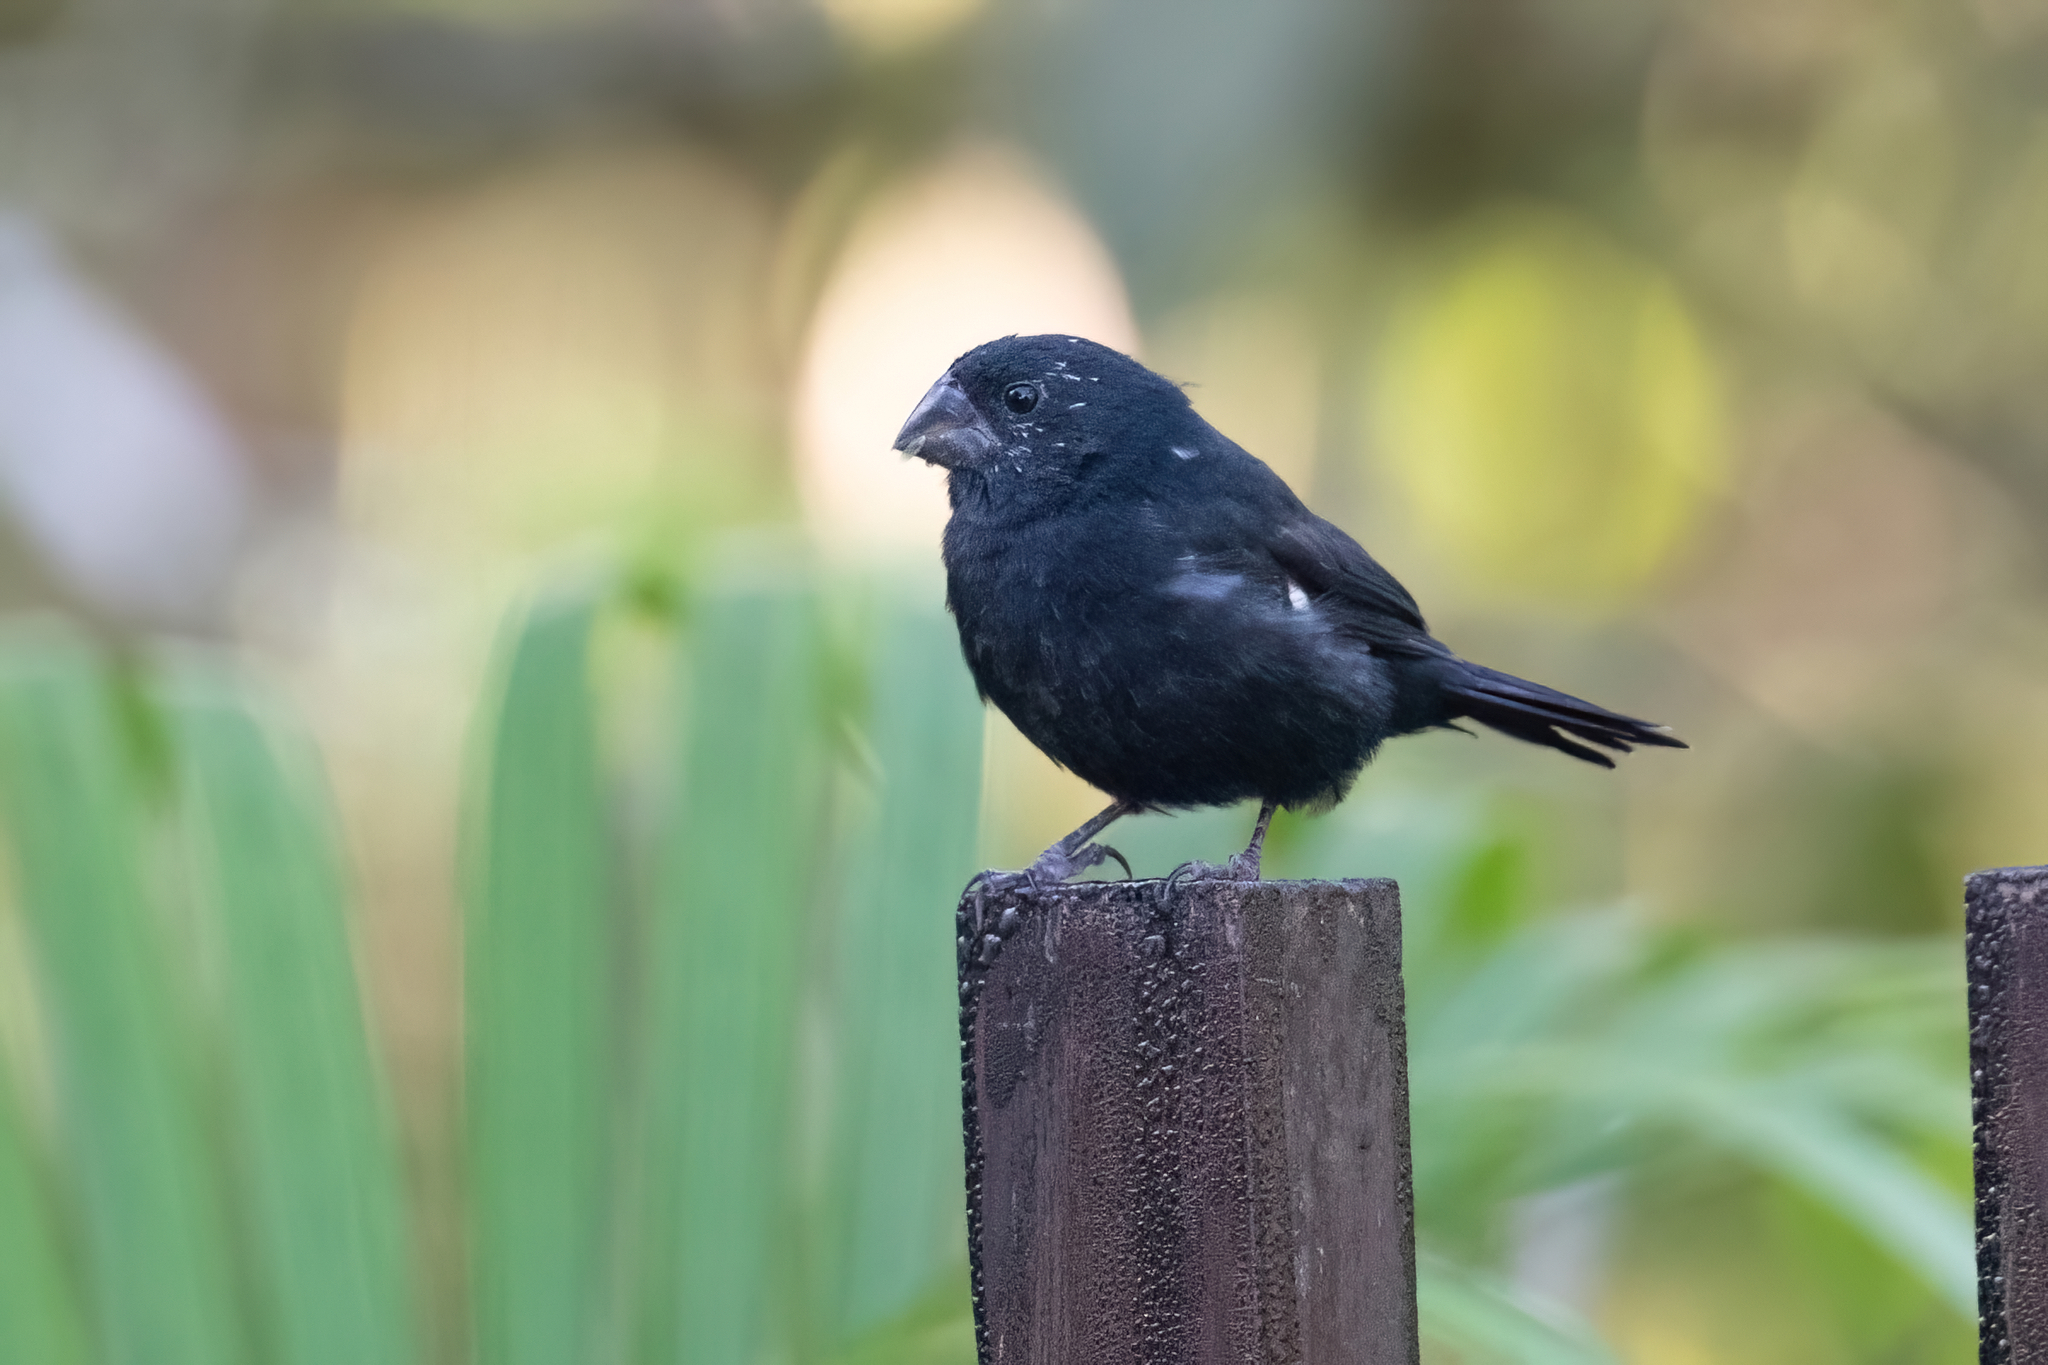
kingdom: Animalia
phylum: Chordata
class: Aves
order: Passeriformes
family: Thraupidae
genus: Sporophila
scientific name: Sporophila funerea
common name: Thick-billed seed-finch
